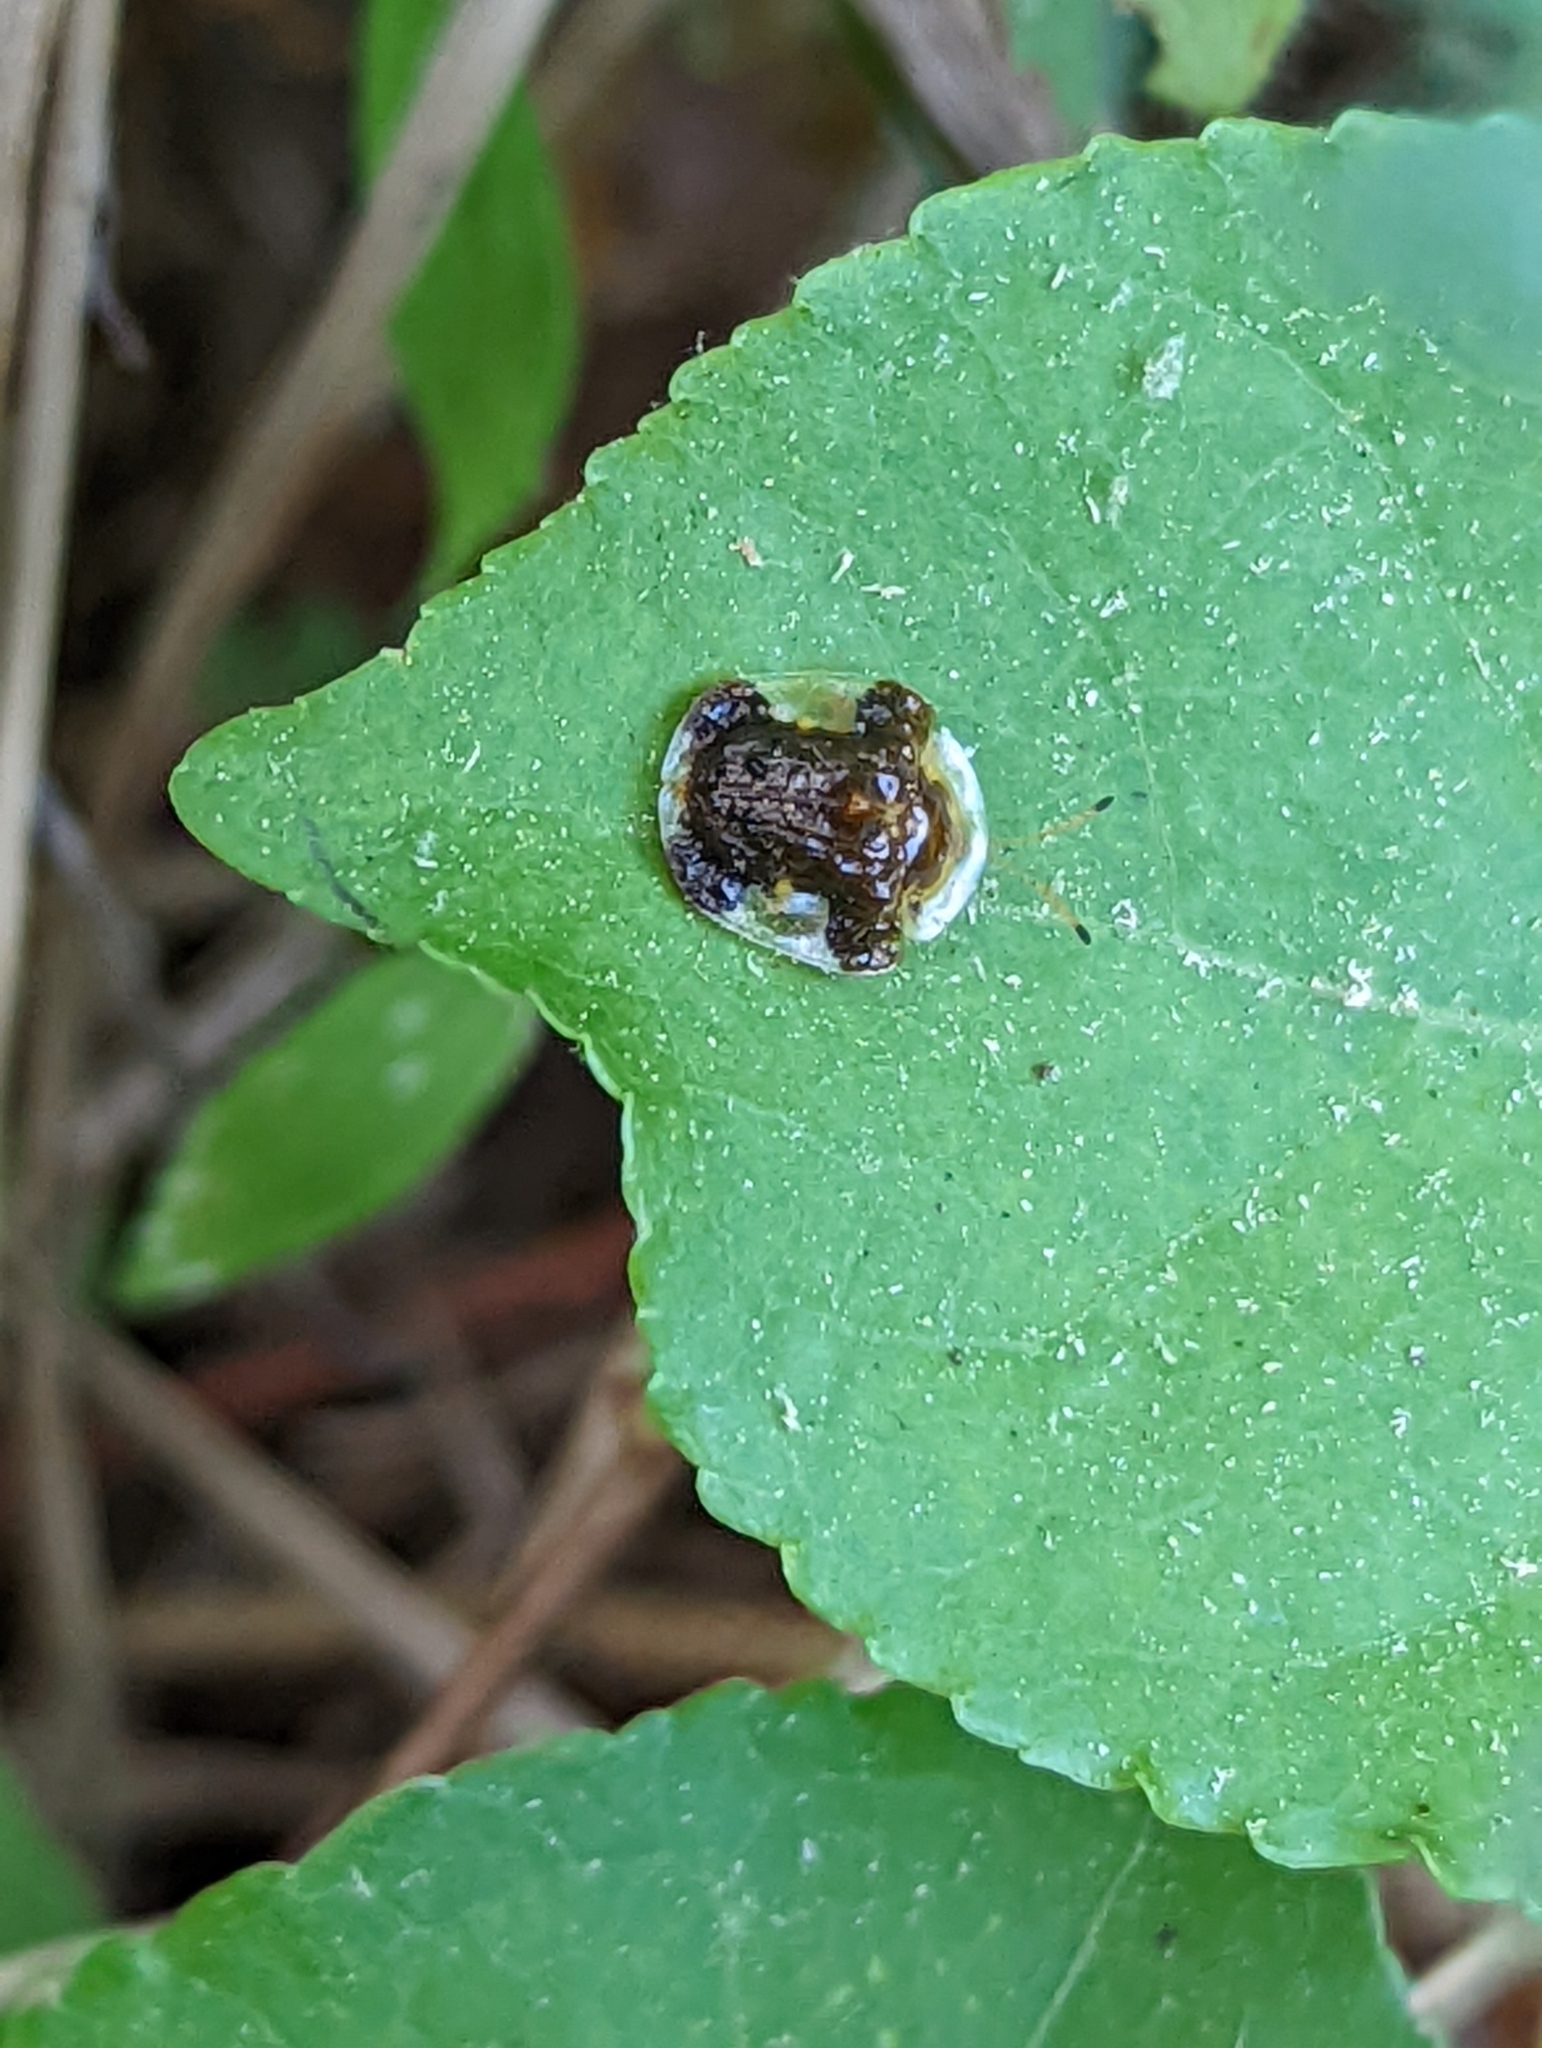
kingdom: Animalia
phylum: Arthropoda
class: Insecta
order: Coleoptera
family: Chrysomelidae
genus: Helocassis
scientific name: Helocassis clavata
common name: Clavate tortoise beetle
